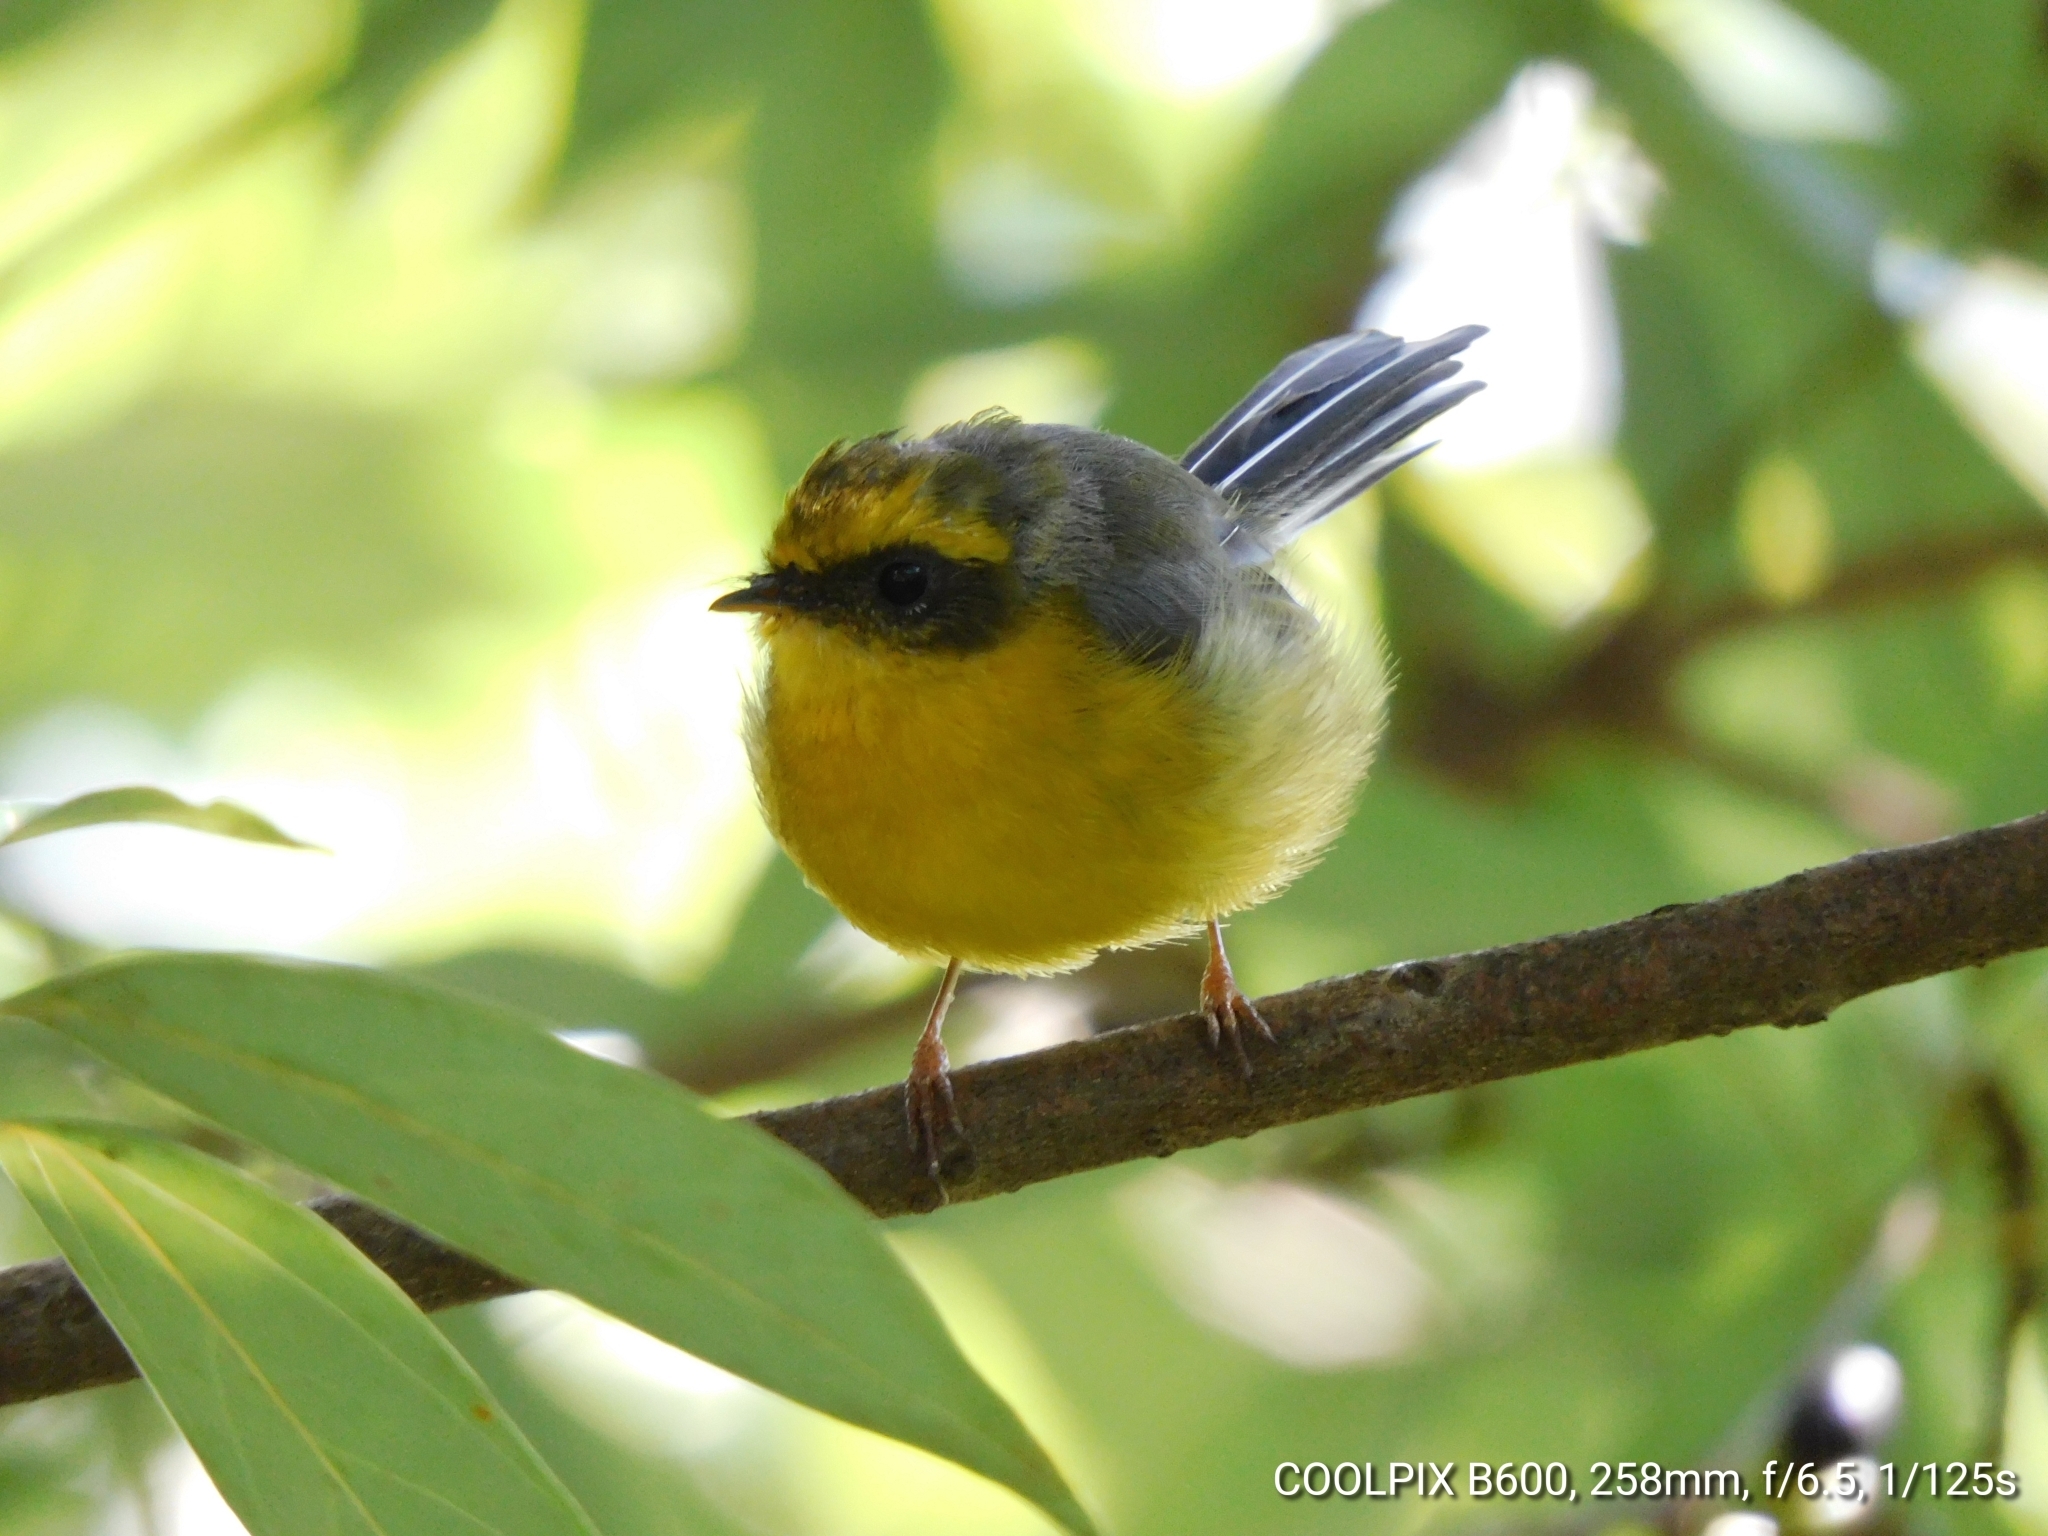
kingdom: Animalia
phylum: Chordata
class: Aves
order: Passeriformes
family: Stenostiridae
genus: Chelidorhynx
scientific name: Chelidorhynx hypoxantha
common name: Yellow-bellied fantail
